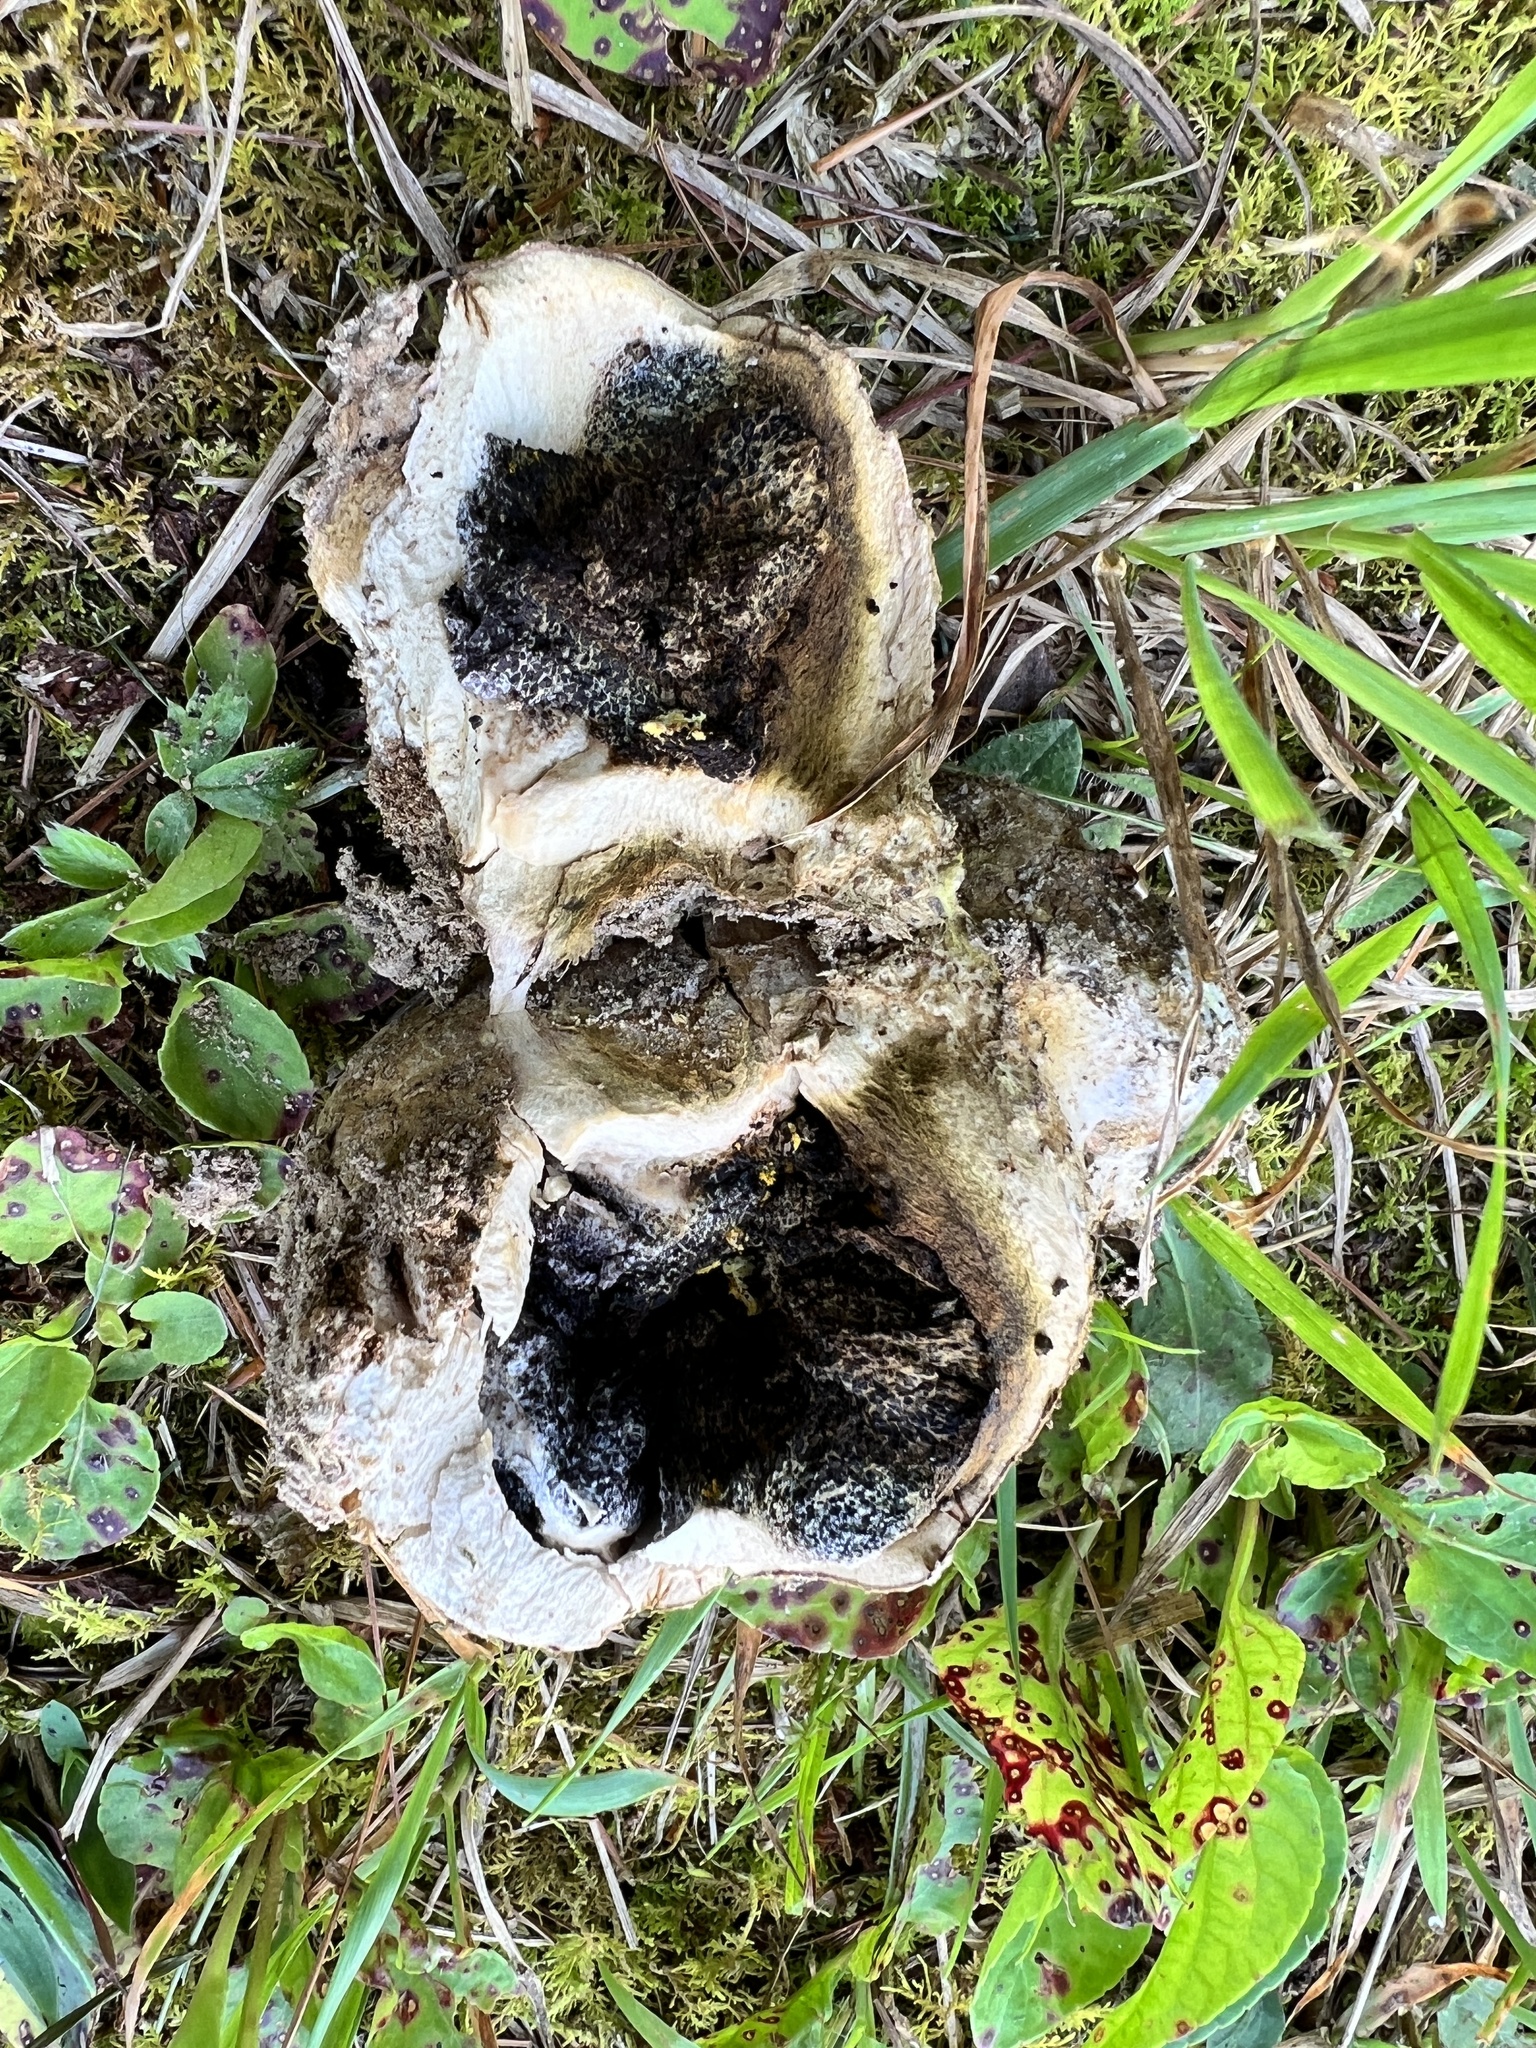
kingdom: Fungi
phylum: Basidiomycota
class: Agaricomycetes
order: Boletales
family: Sclerodermataceae
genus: Scleroderma
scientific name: Scleroderma polyrhizum
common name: Many-rooted earthball
